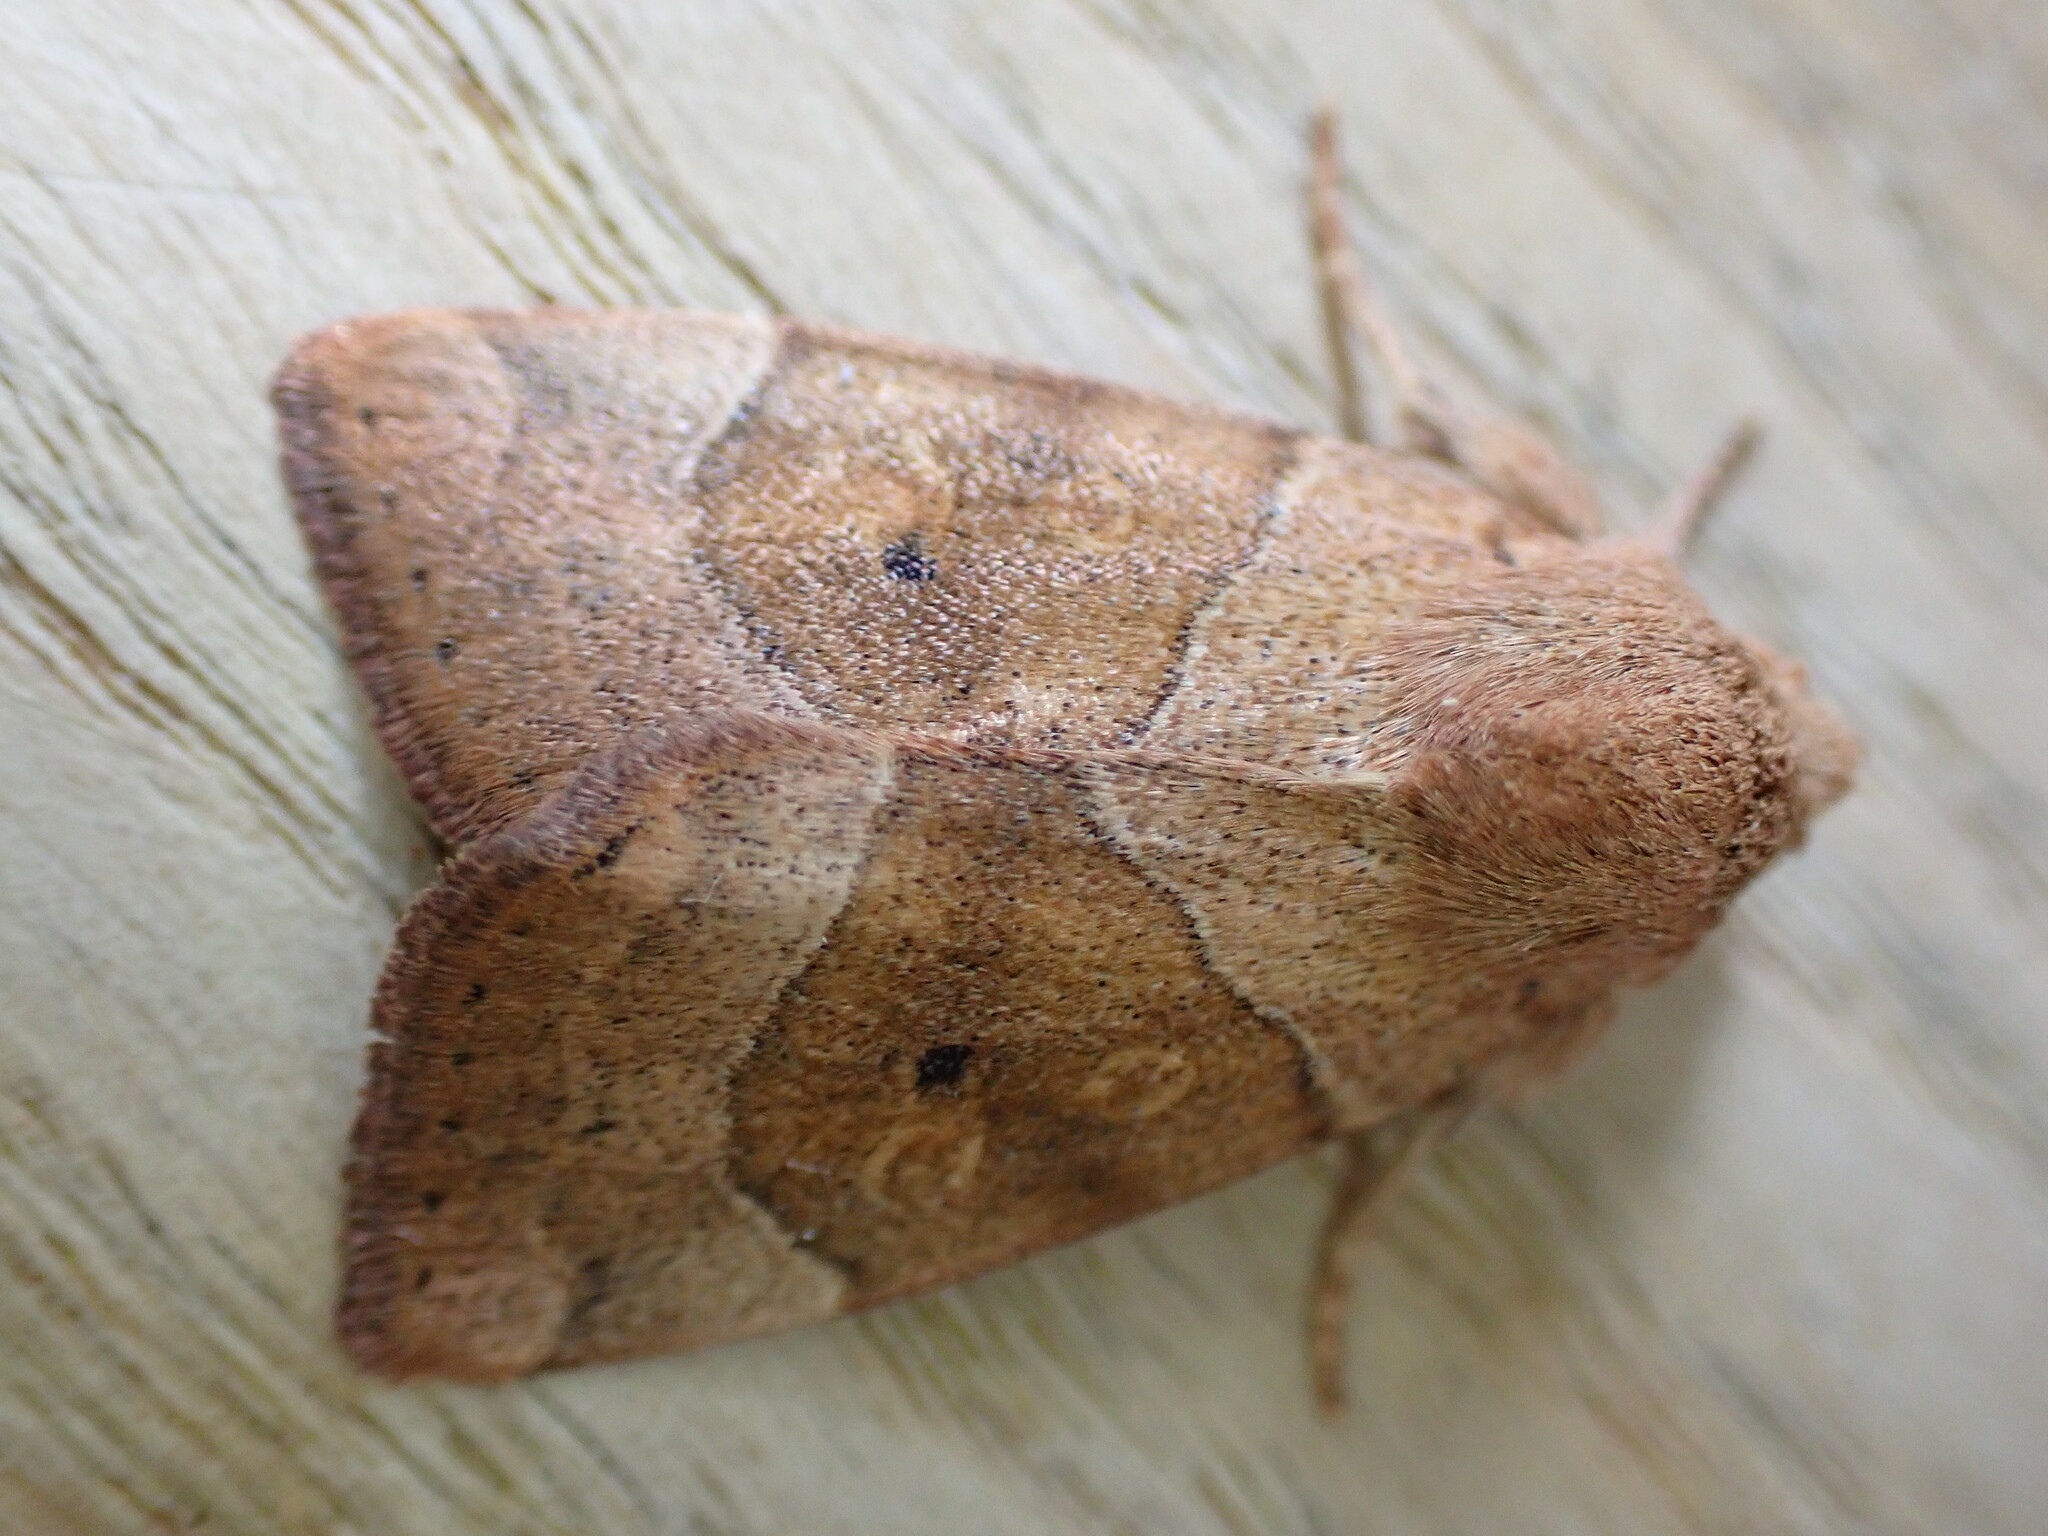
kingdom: Animalia
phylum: Arthropoda
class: Insecta
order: Lepidoptera
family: Noctuidae
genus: Cosmia
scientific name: Cosmia trapezina
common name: Dun-bar
